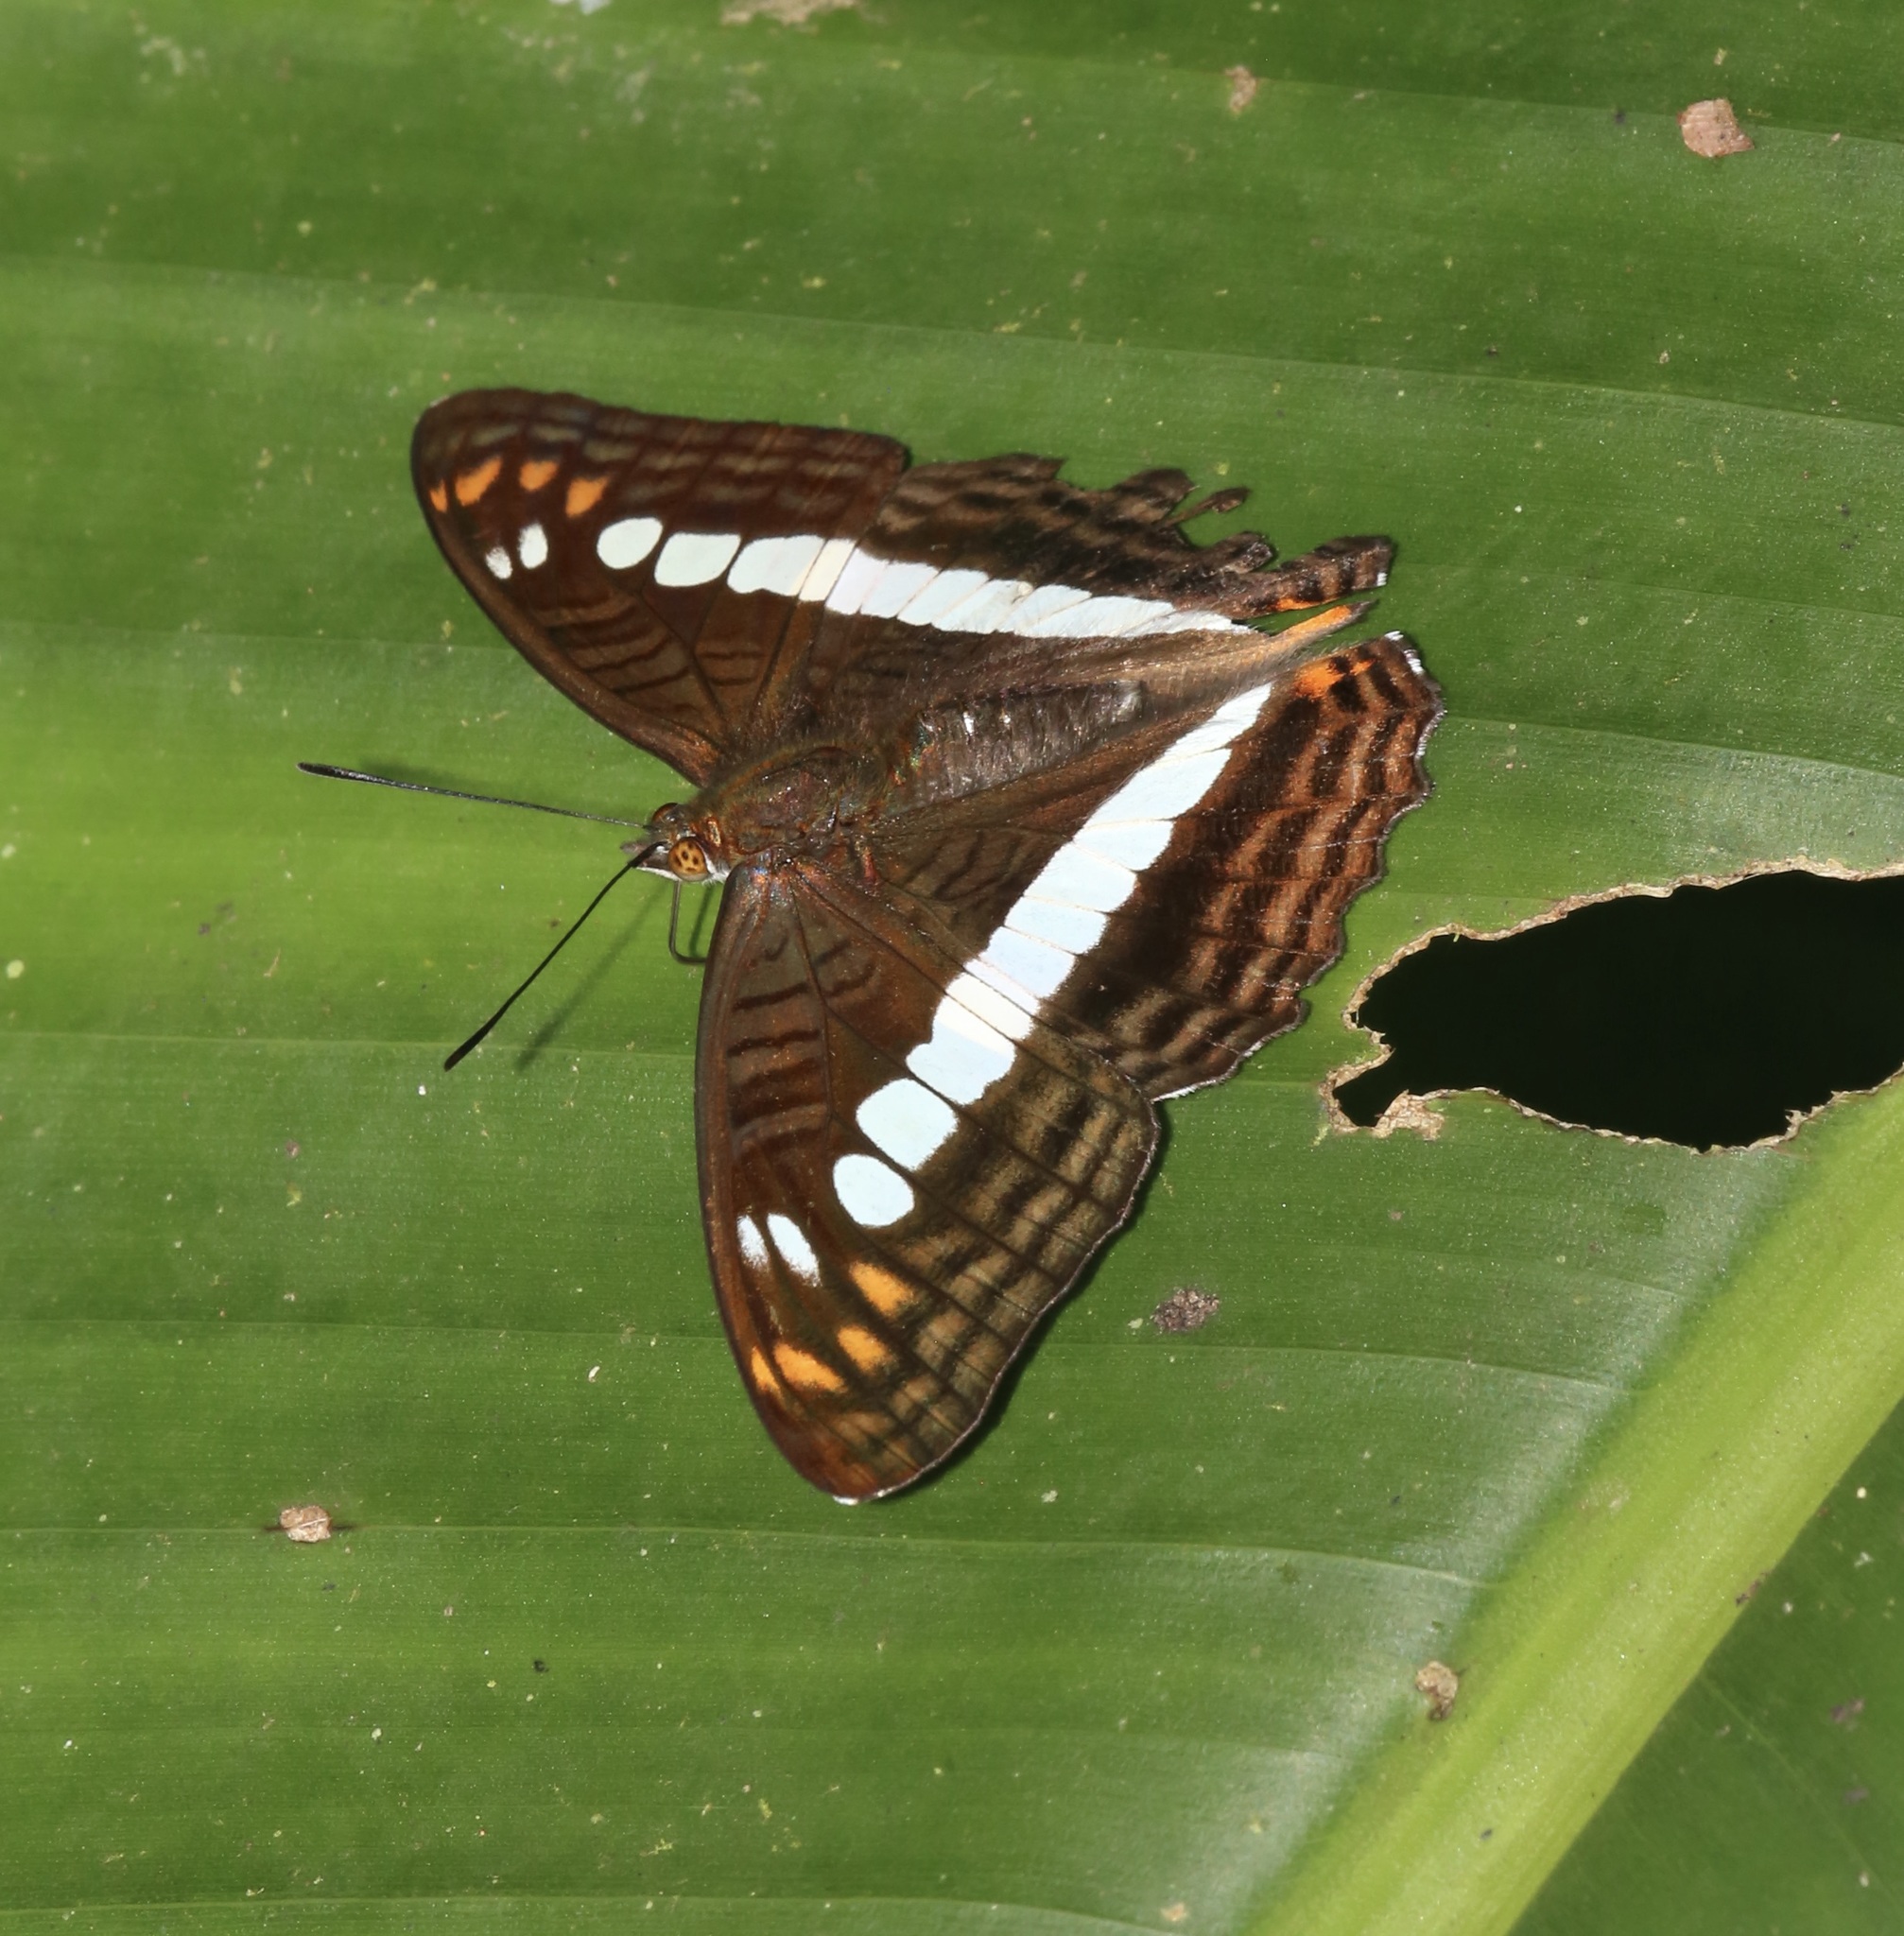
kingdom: Animalia
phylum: Arthropoda
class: Insecta
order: Lepidoptera
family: Nymphalidae
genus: Limenitis
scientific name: Limenitis alala
